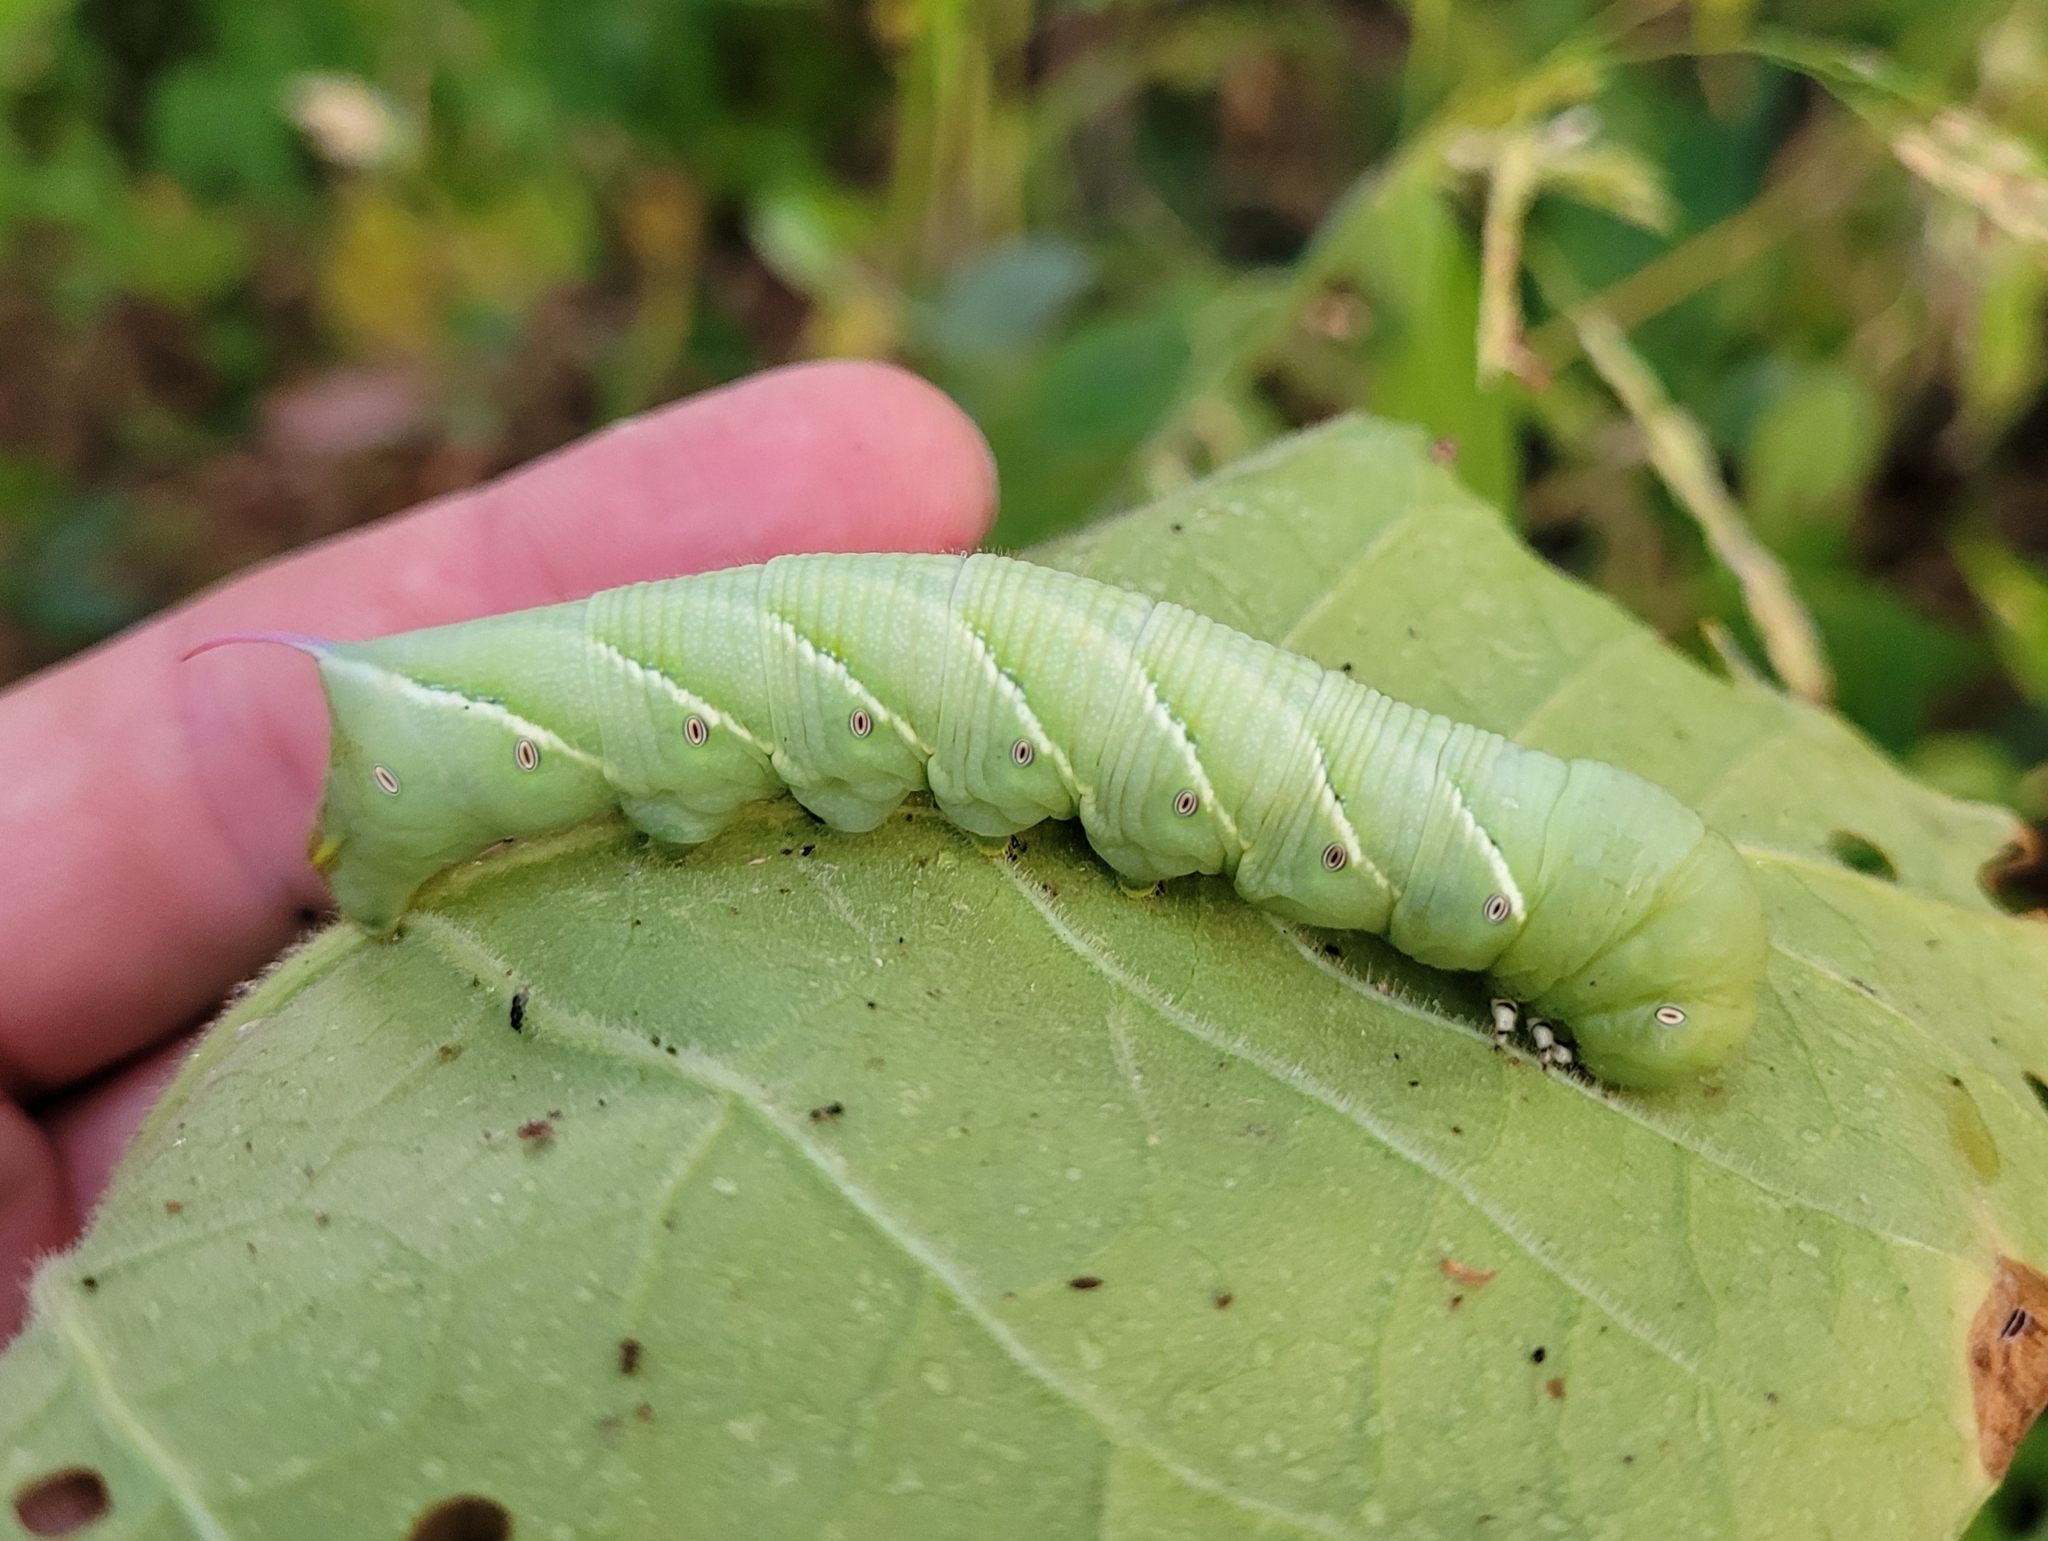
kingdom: Animalia
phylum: Arthropoda
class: Insecta
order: Lepidoptera
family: Sphingidae
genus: Manduca
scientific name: Manduca sexta
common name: Carolina sphinx
